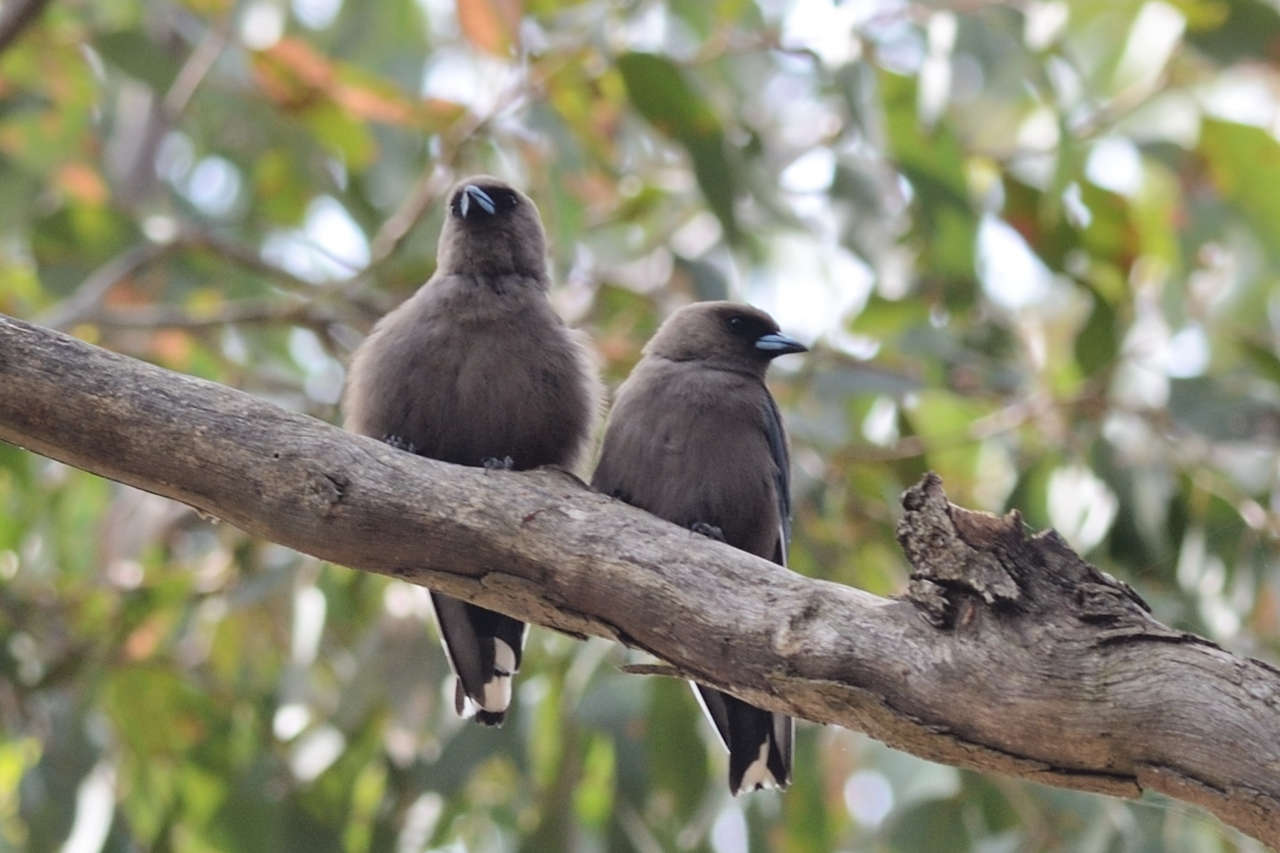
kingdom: Animalia
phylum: Chordata
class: Aves
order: Passeriformes
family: Artamidae
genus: Artamus
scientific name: Artamus cyanopterus
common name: Dusky woodswallow
